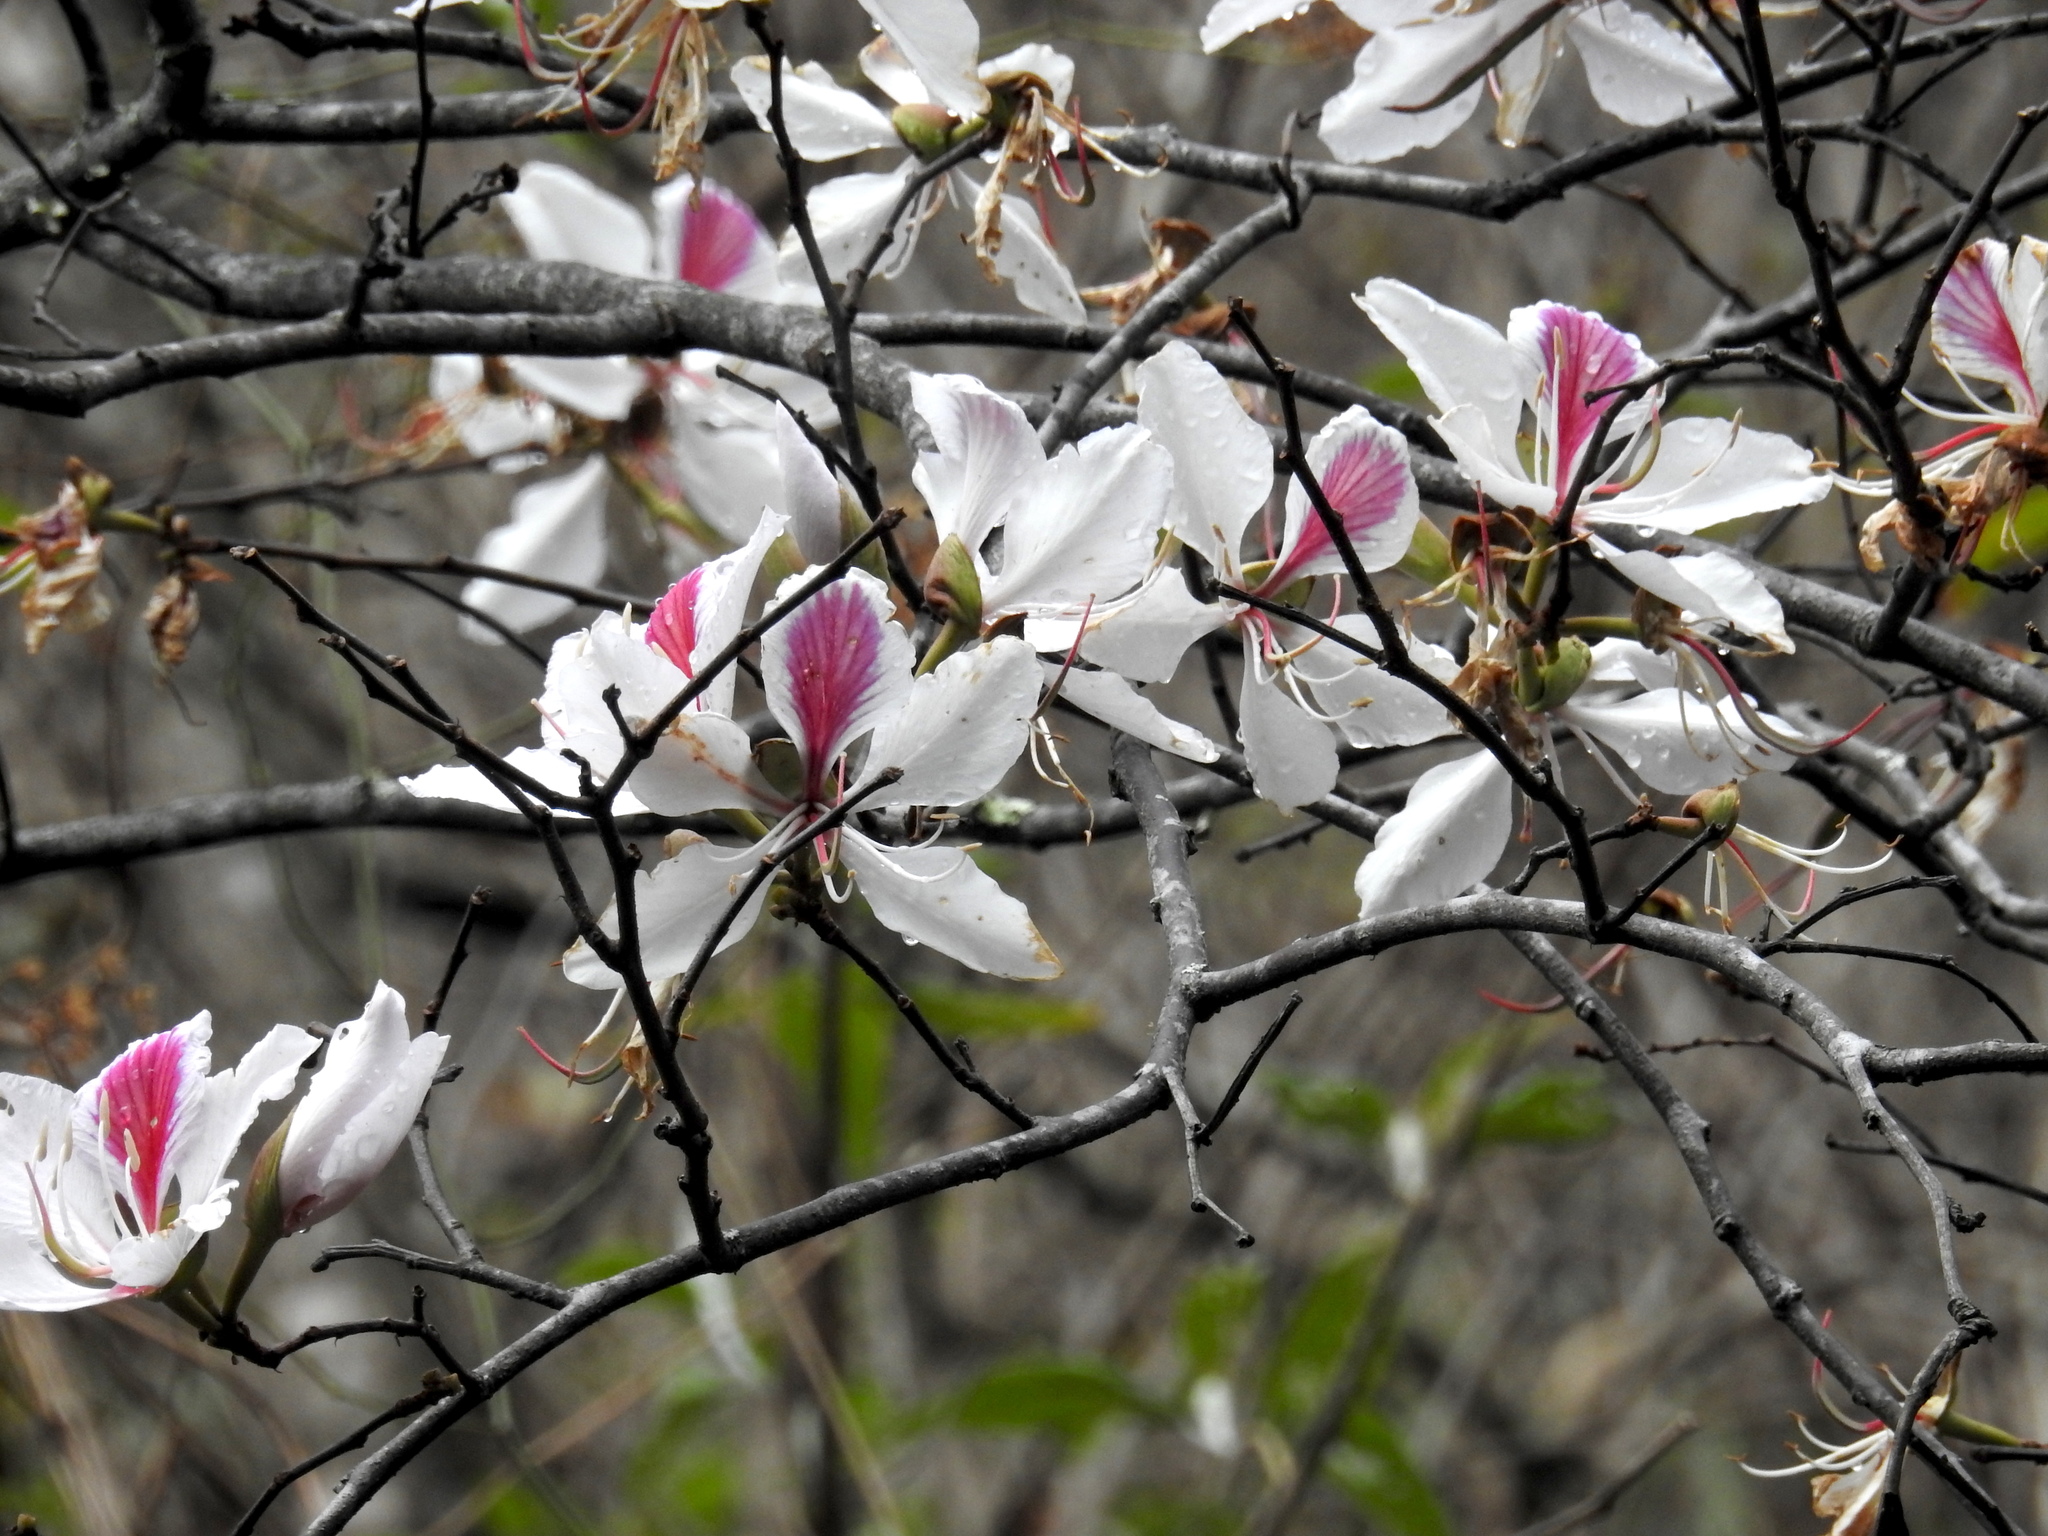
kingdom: Plantae
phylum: Tracheophyta
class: Magnoliopsida
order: Fabales
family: Fabaceae
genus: Bauhinia
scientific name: Bauhinia variegata
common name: Mountain ebony
